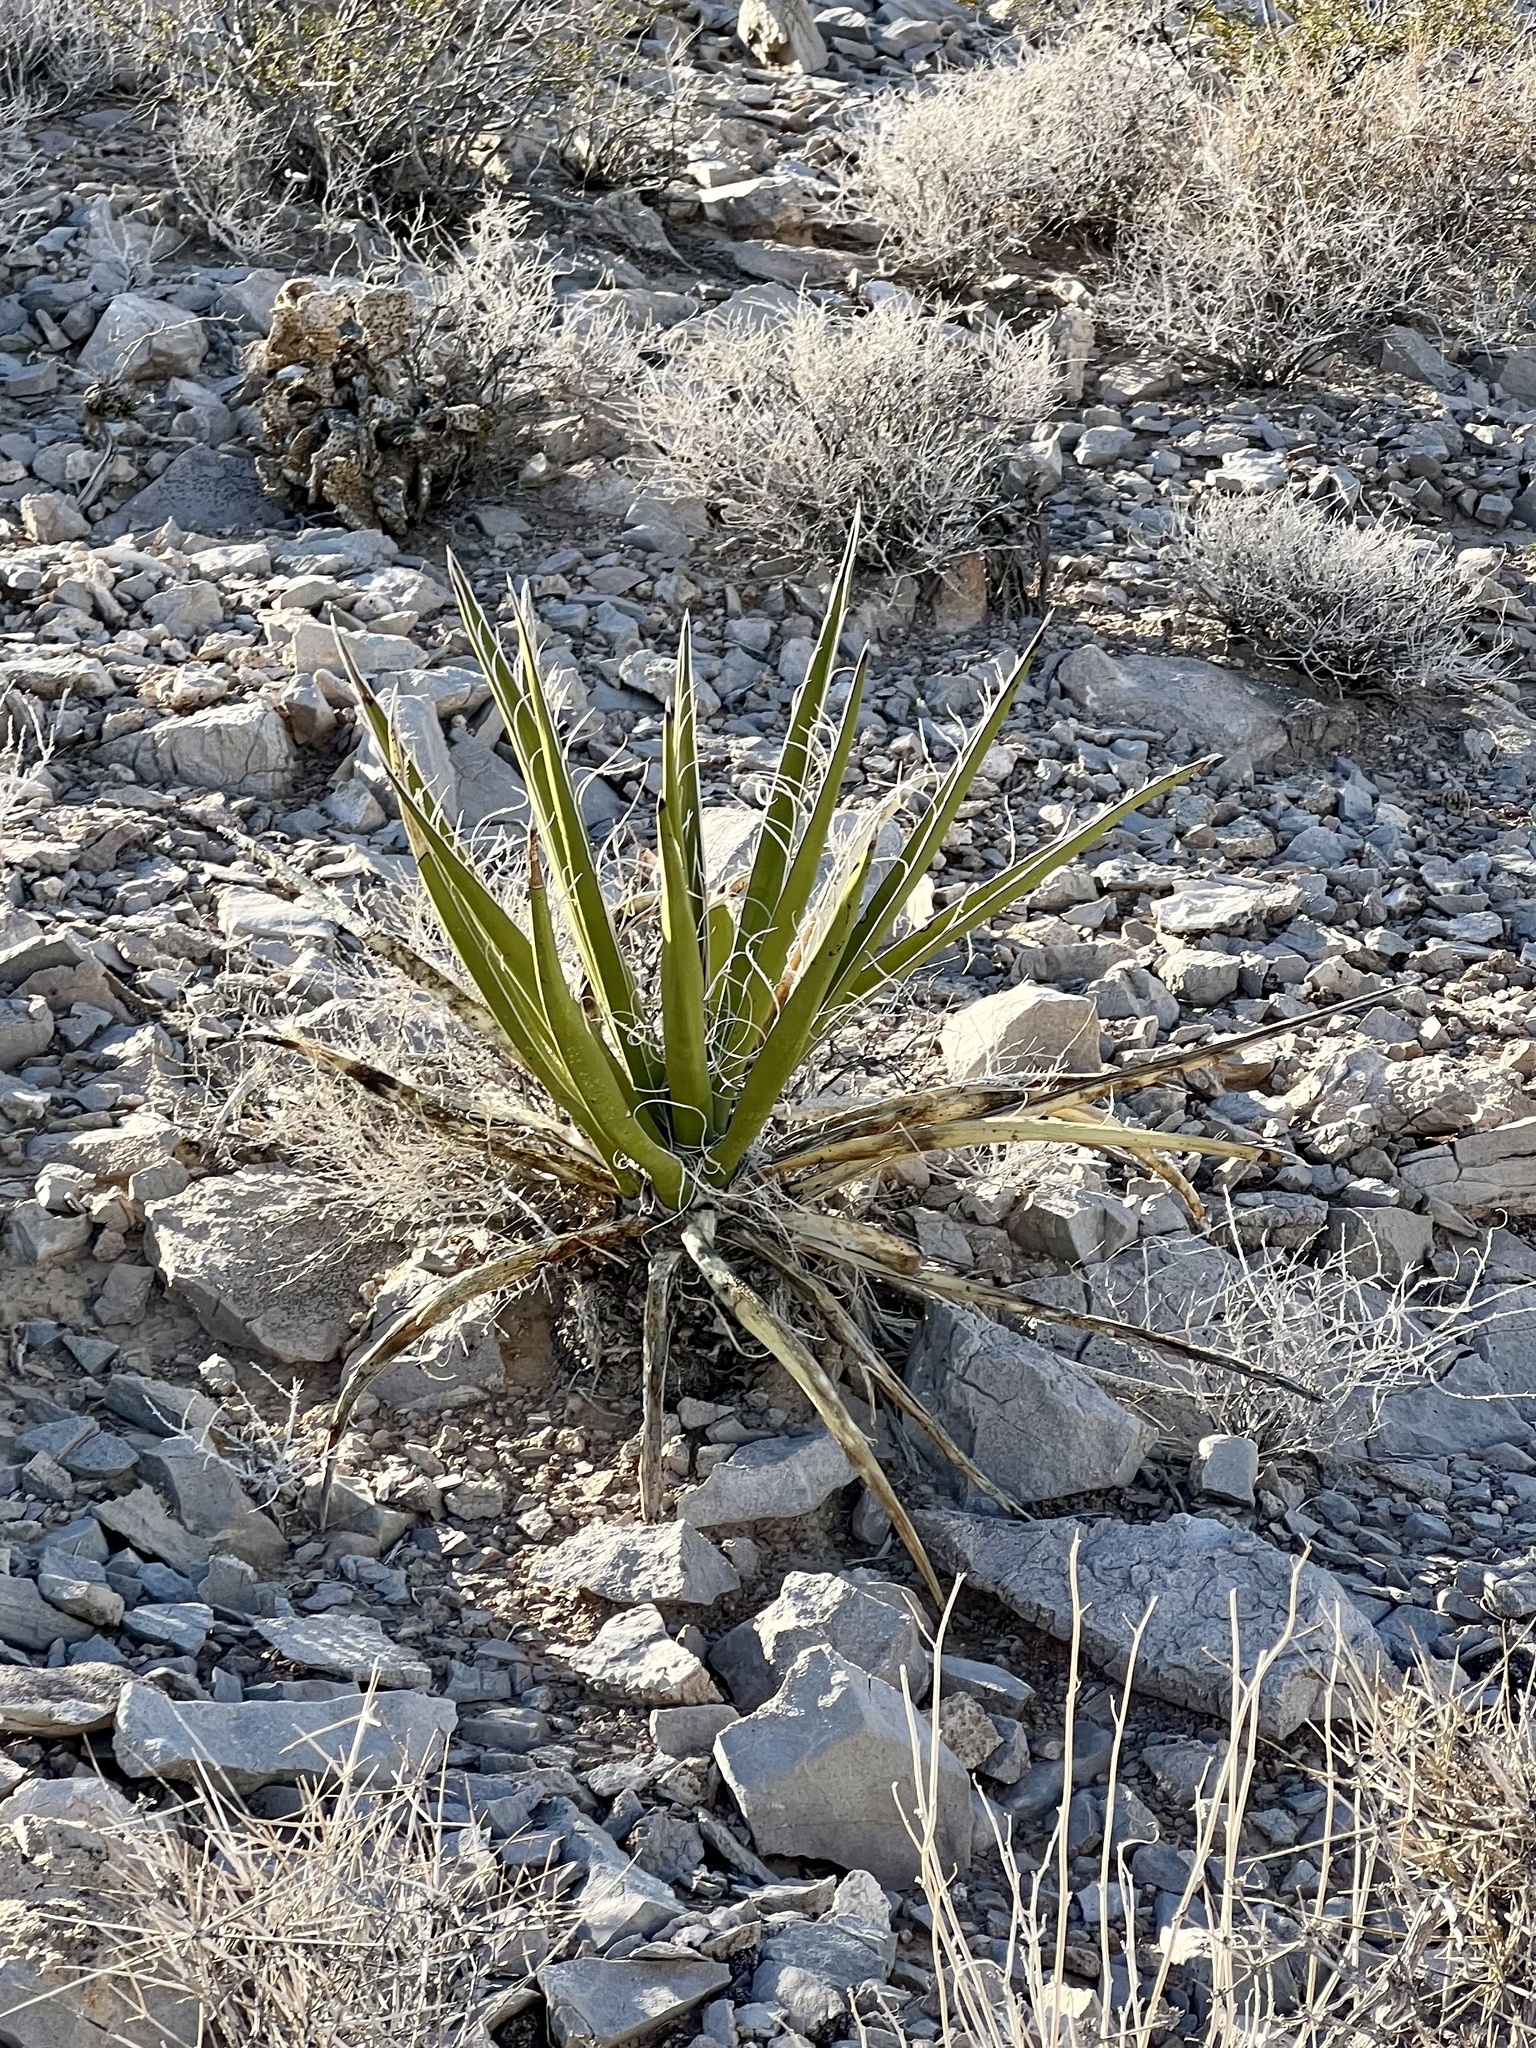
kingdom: Plantae
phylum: Tracheophyta
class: Liliopsida
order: Asparagales
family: Asparagaceae
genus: Yucca
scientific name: Yucca schidigera
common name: Mojave yucca
